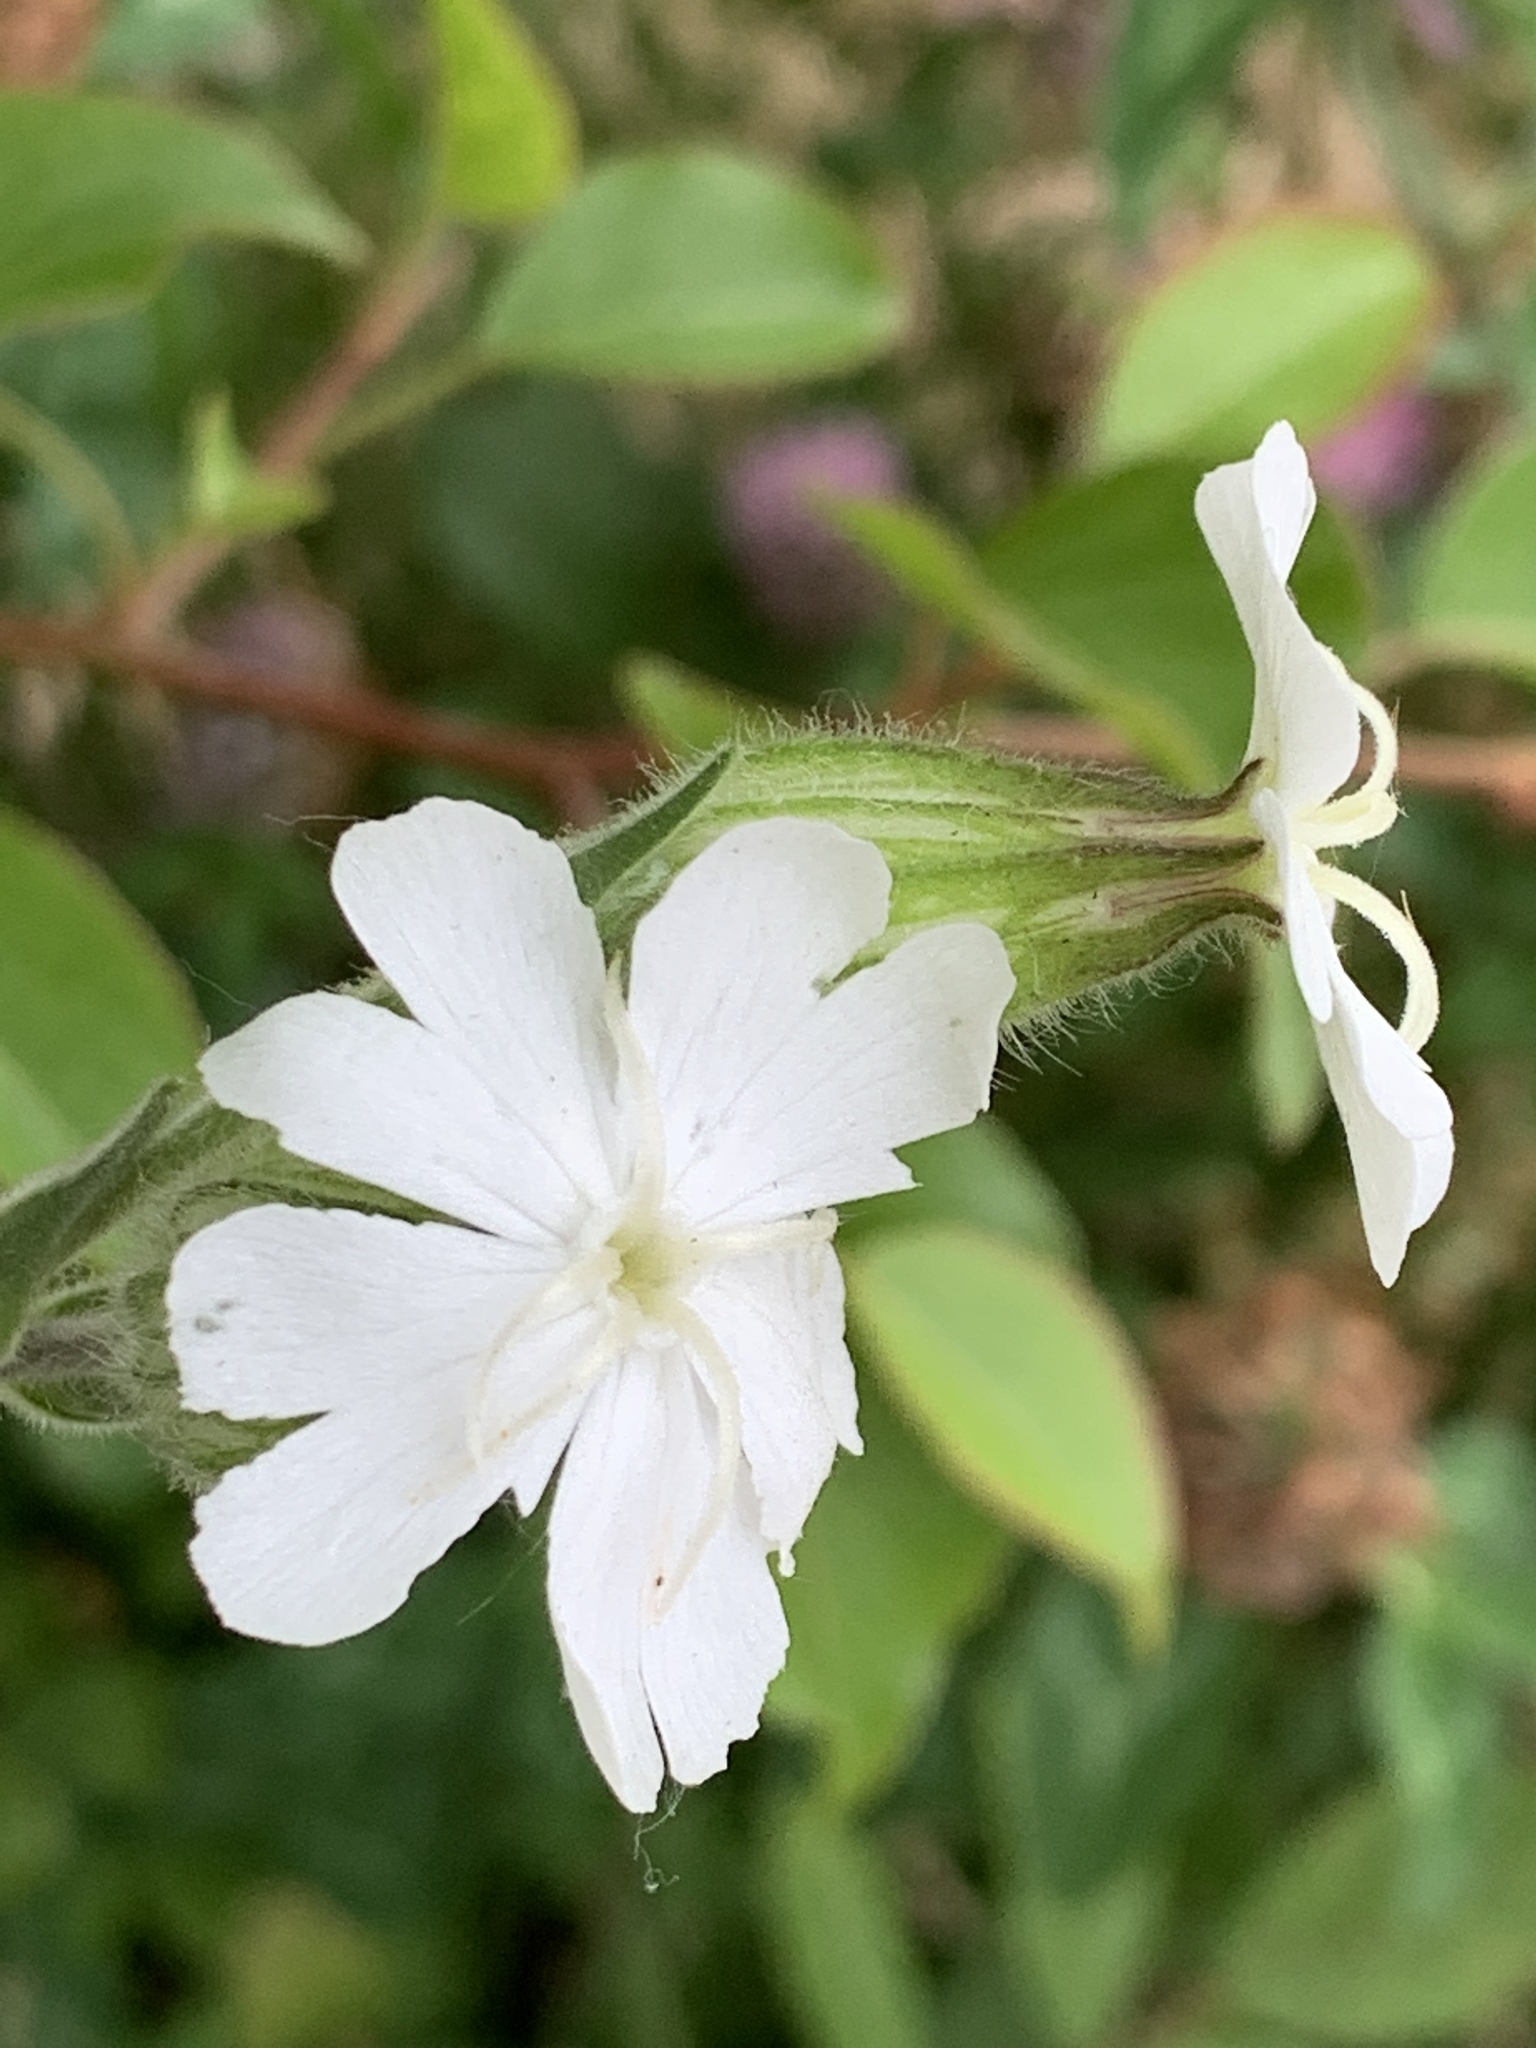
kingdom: Plantae
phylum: Tracheophyta
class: Magnoliopsida
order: Caryophyllales
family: Caryophyllaceae
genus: Silene
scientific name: Silene latifolia
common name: White campion
